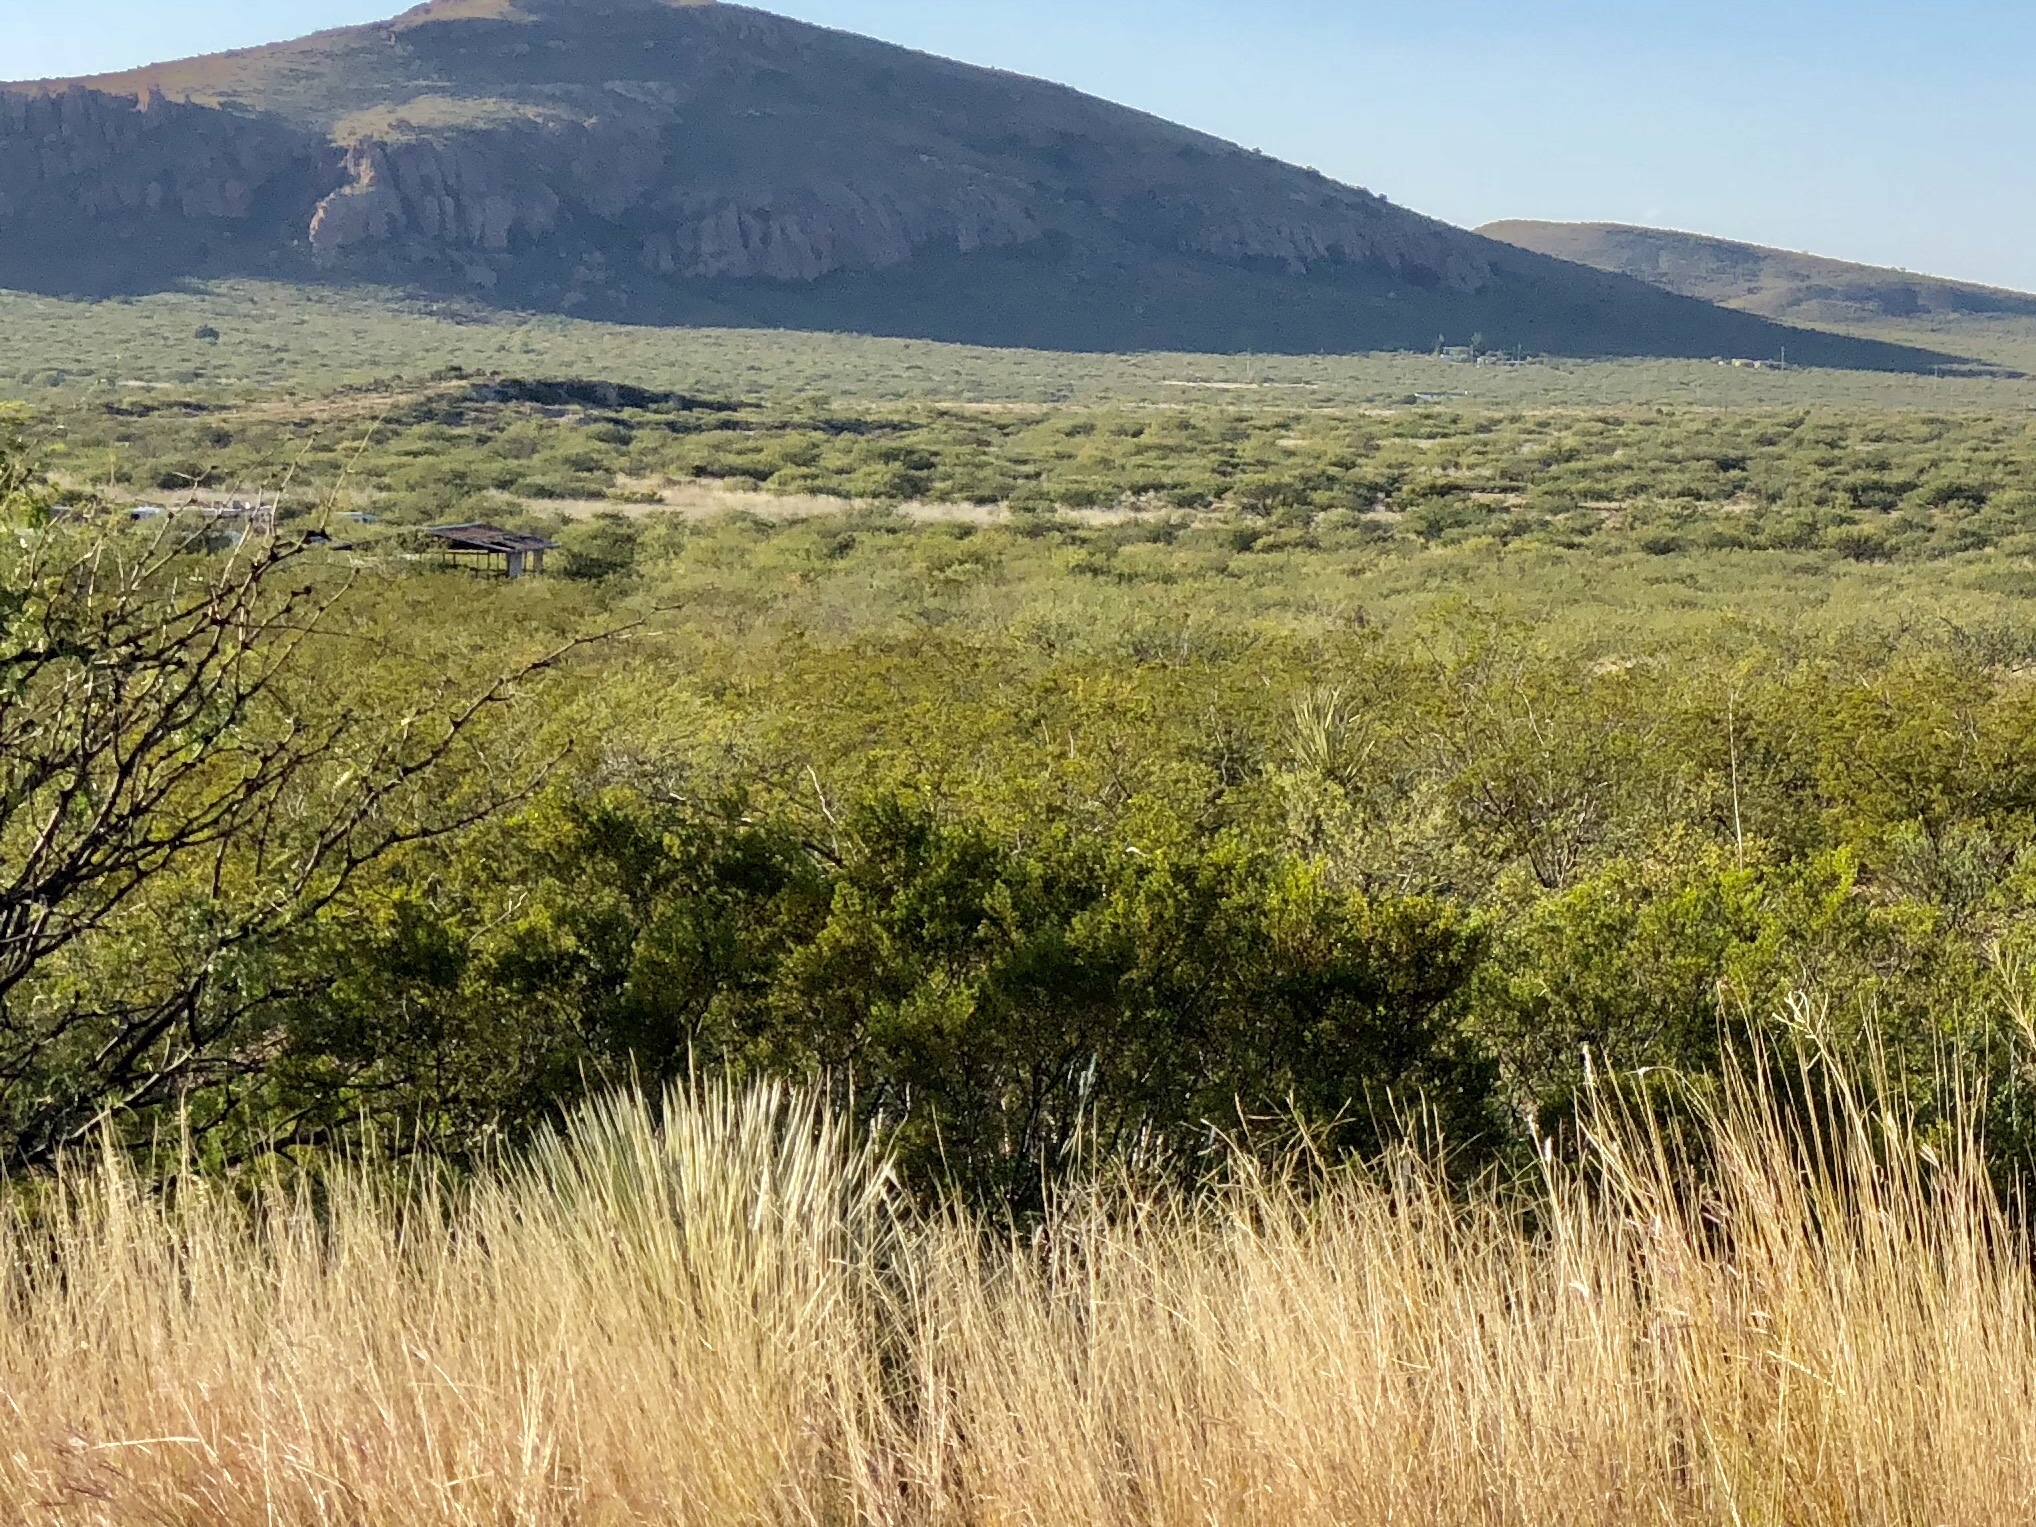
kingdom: Plantae
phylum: Tracheophyta
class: Magnoliopsida
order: Zygophyllales
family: Zygophyllaceae
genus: Larrea
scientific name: Larrea tridentata
